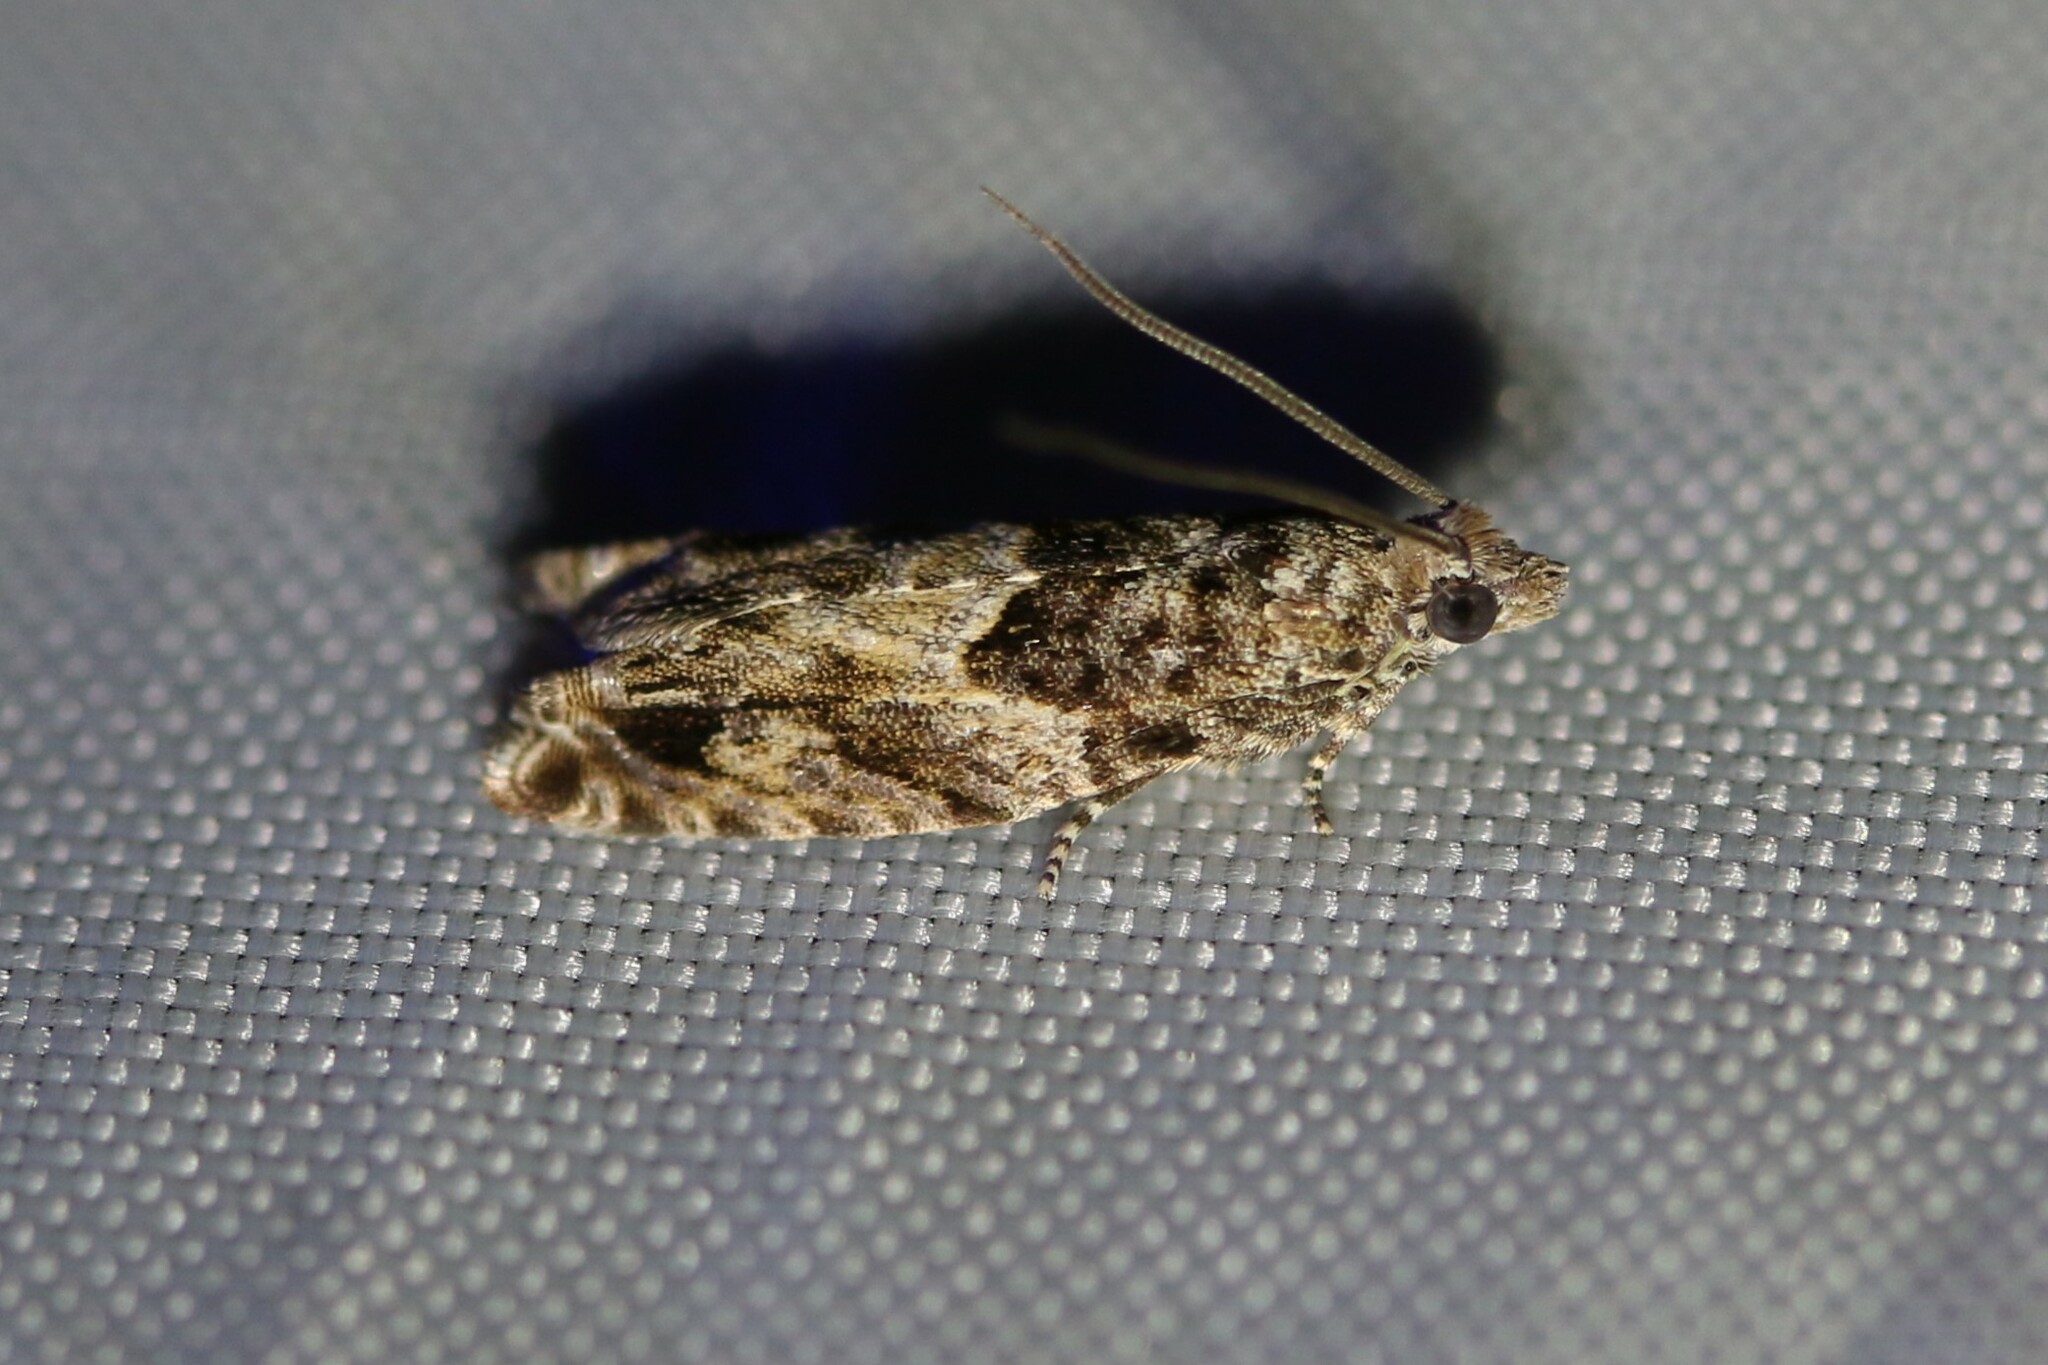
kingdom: Animalia
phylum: Arthropoda
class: Insecta
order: Lepidoptera
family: Tortricidae
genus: Epinotia
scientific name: Epinotia nisella
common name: Grey poplar bell
